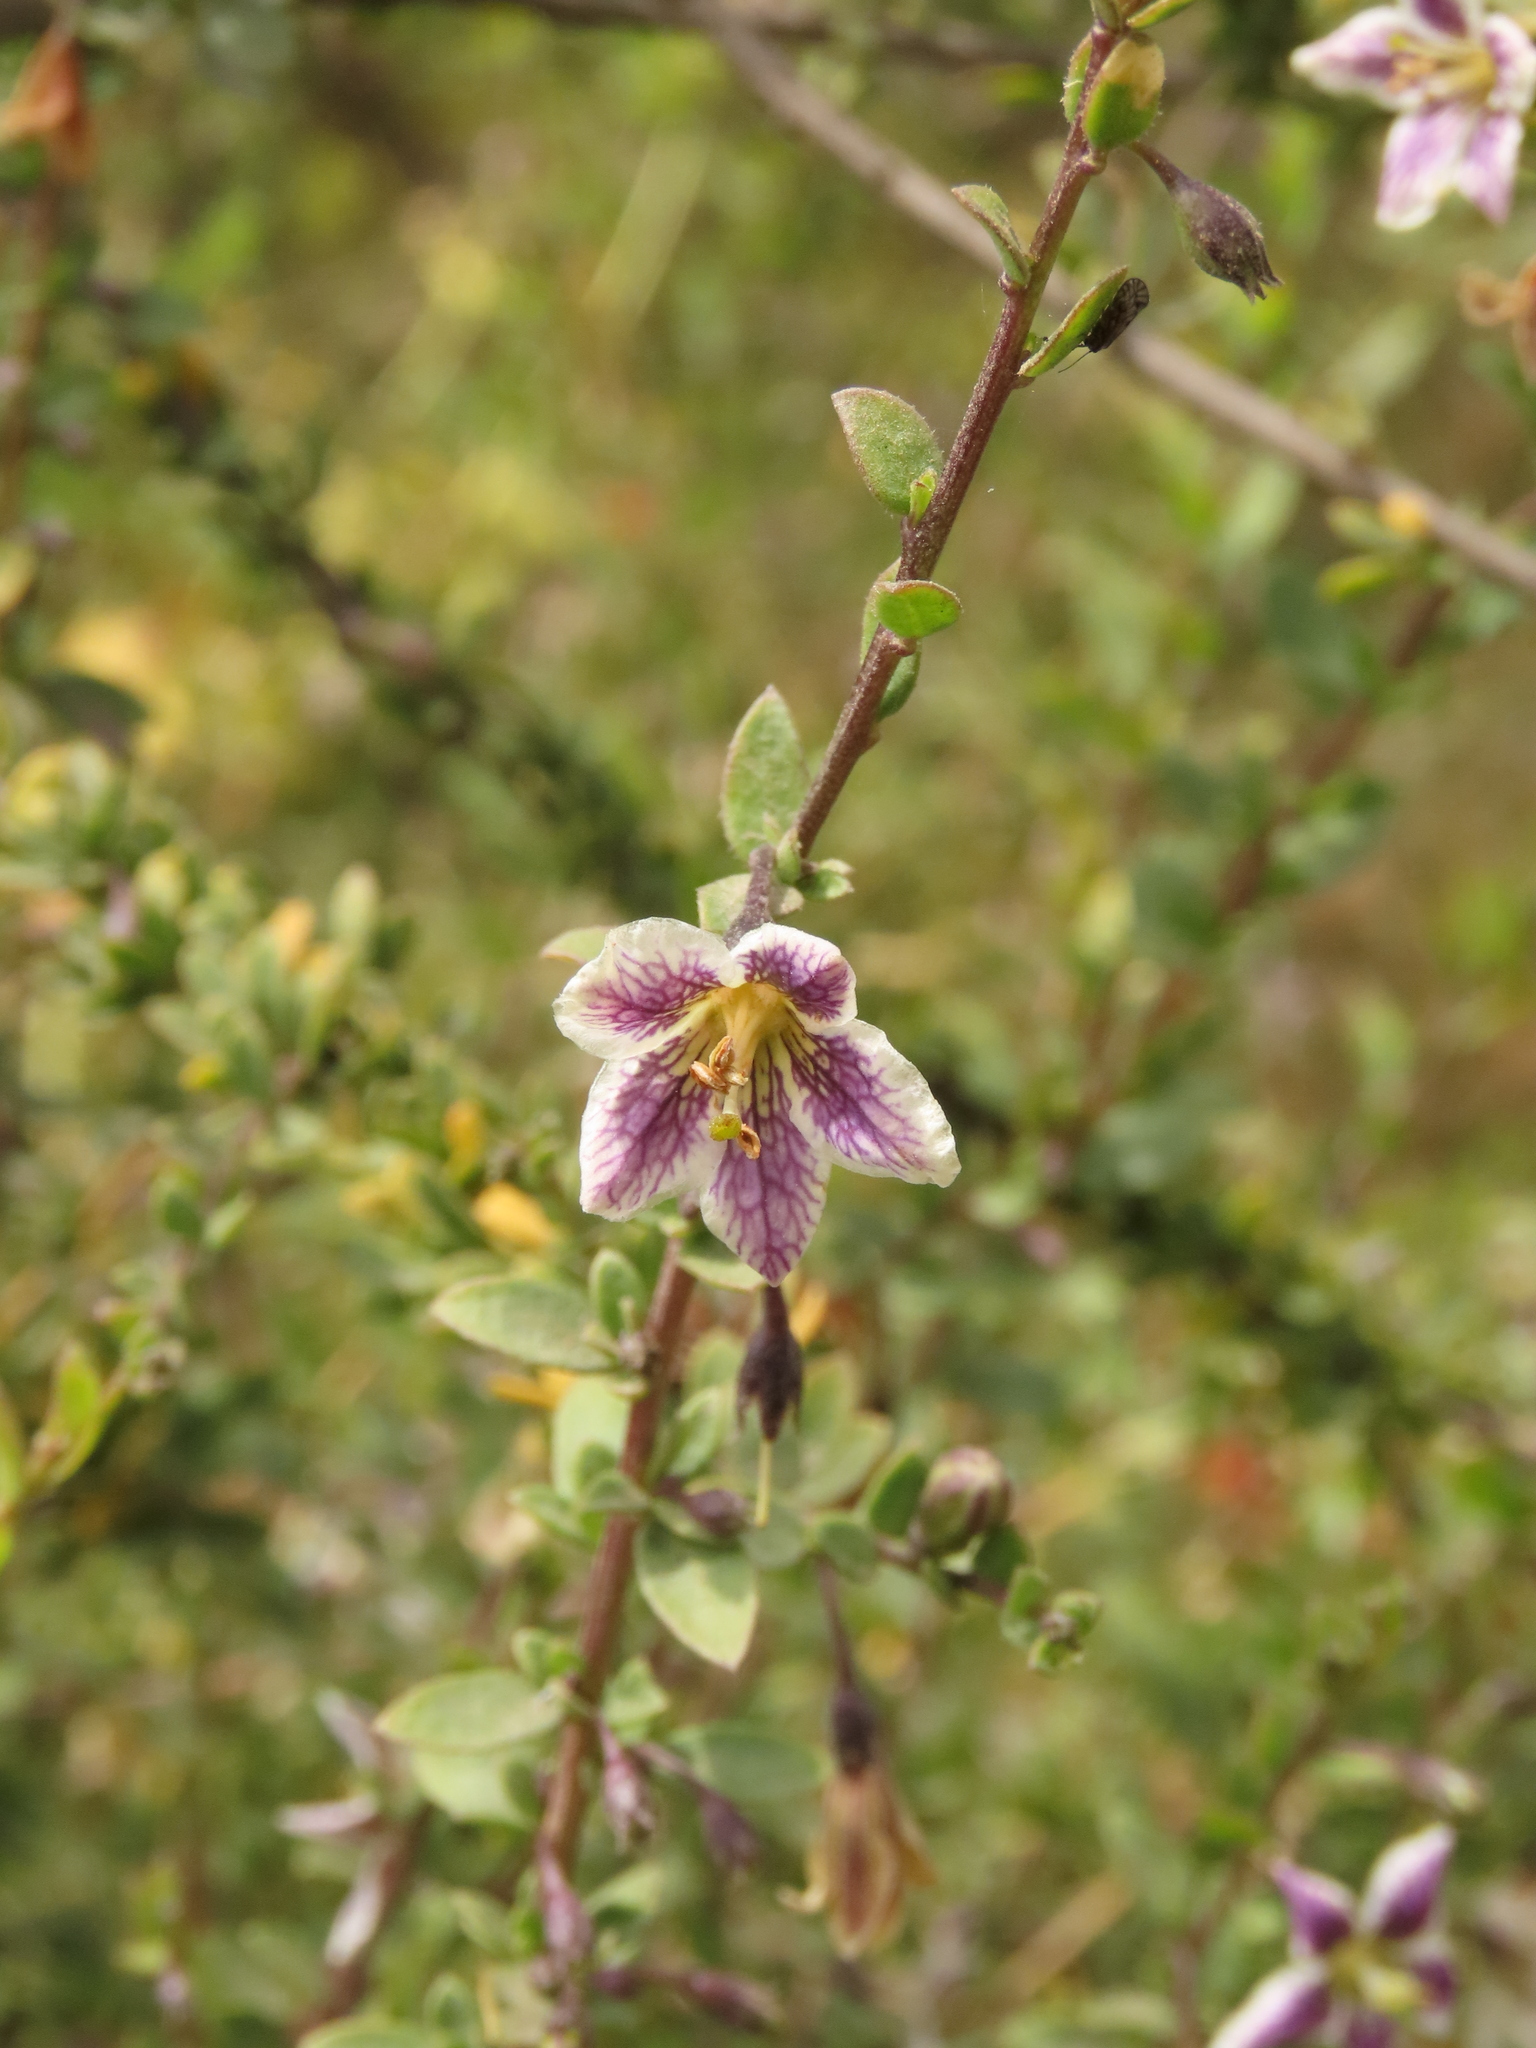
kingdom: Plantae
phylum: Tracheophyta
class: Magnoliopsida
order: Solanales
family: Solanaceae
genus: Lycium
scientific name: Lycium chilense
